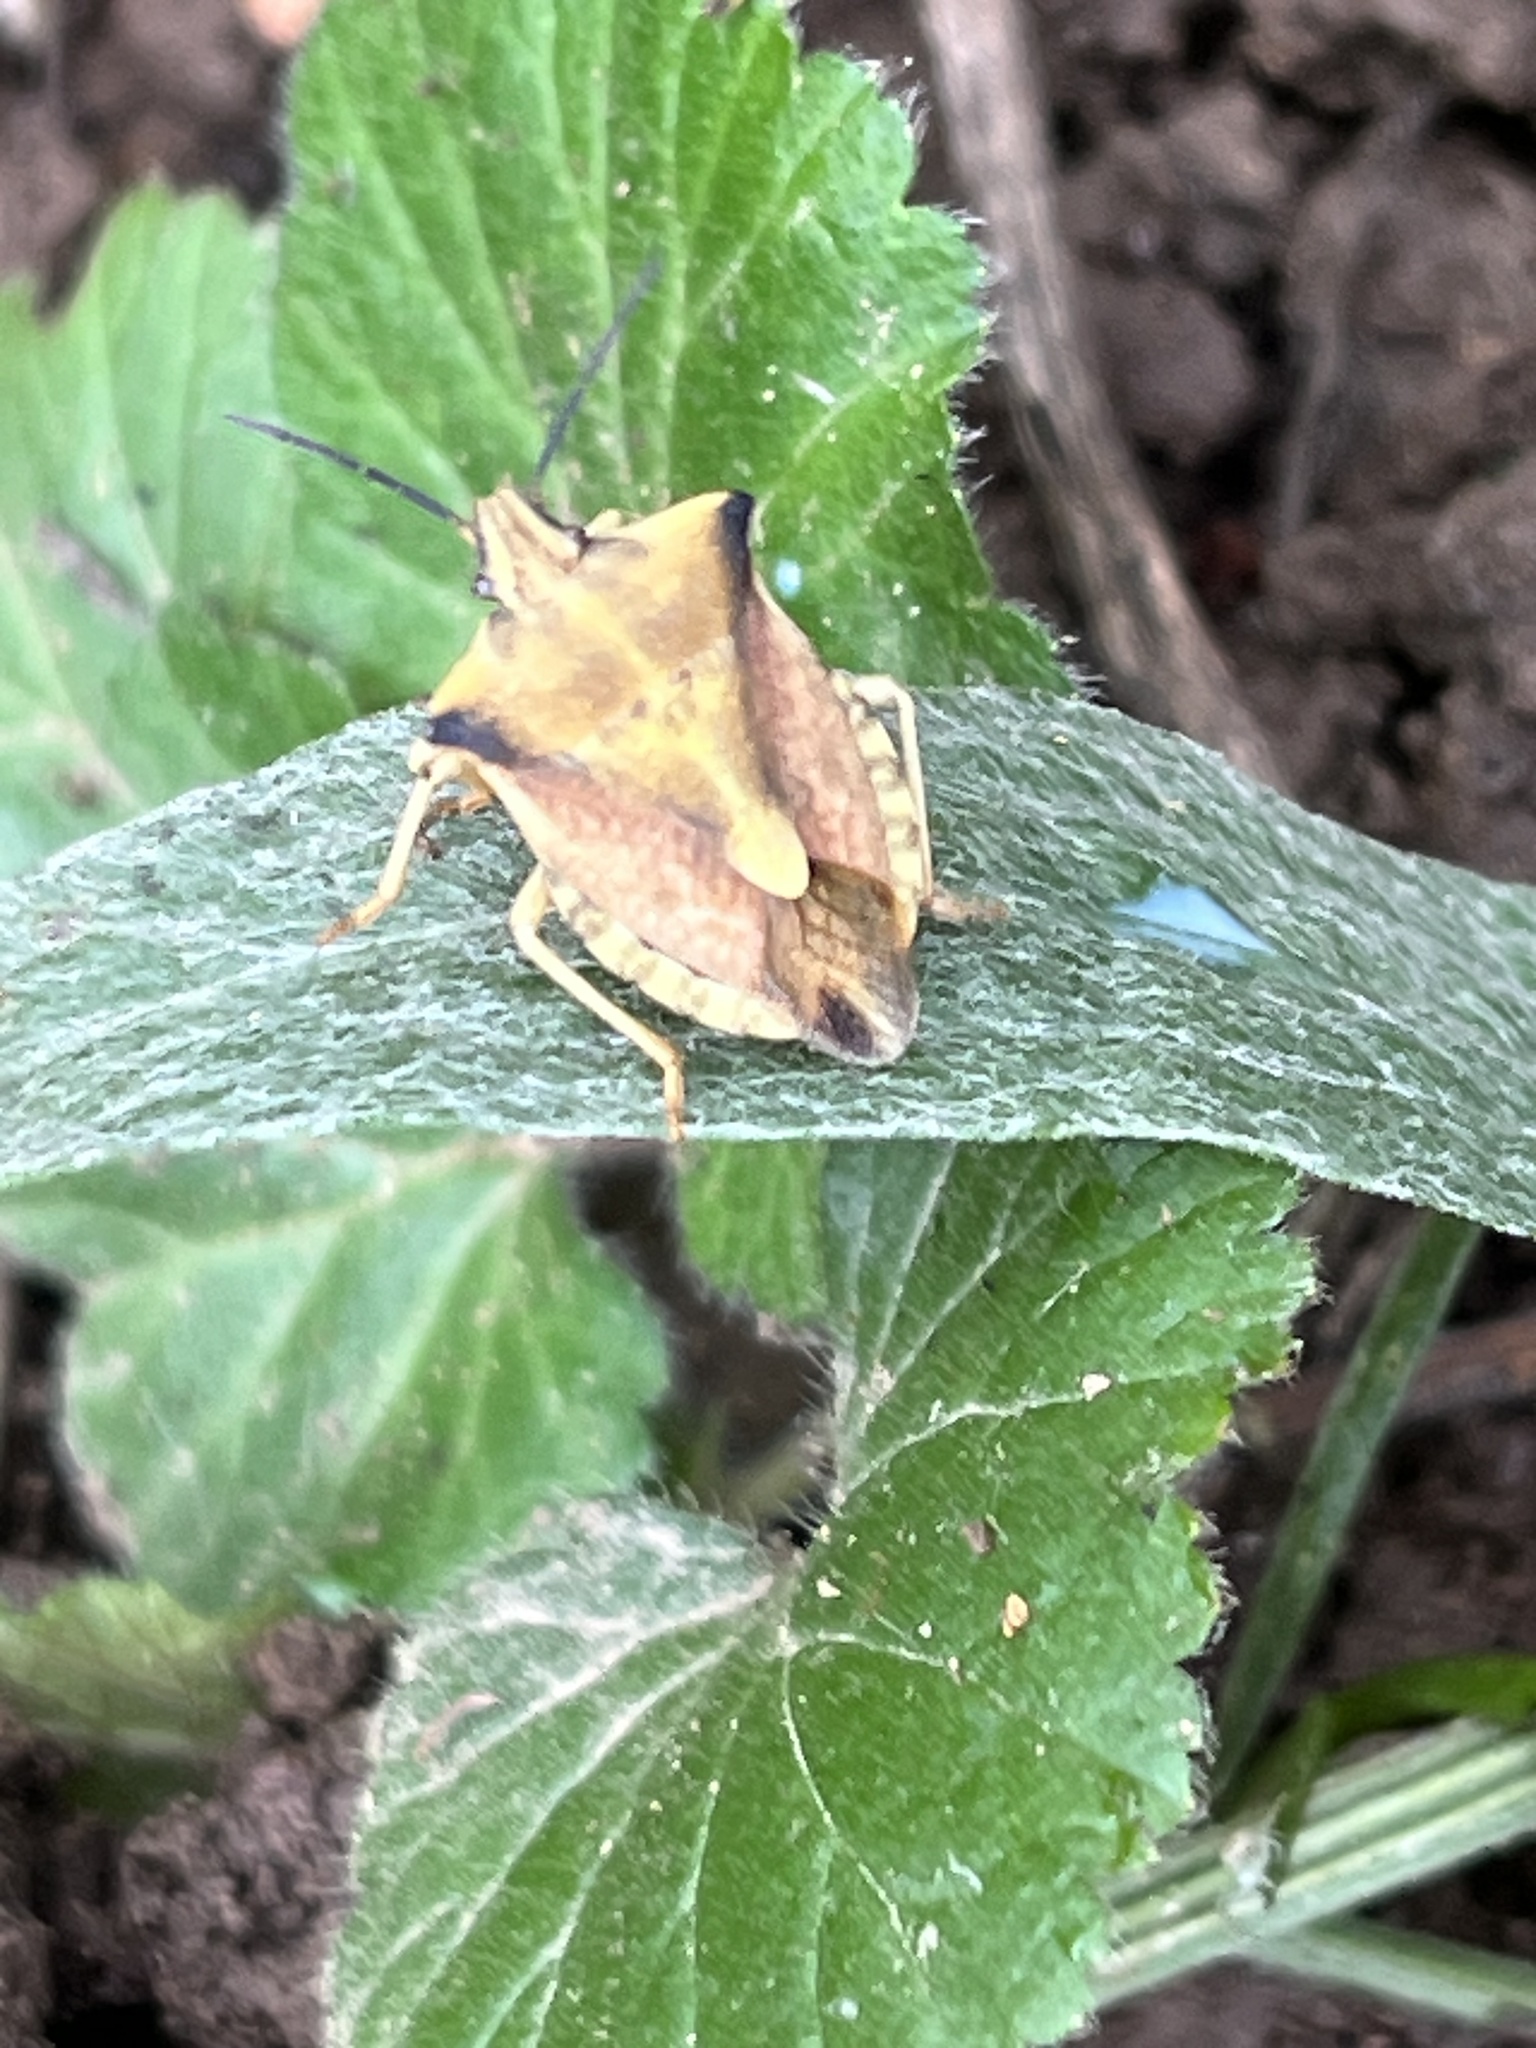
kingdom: Animalia
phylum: Arthropoda
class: Insecta
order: Hemiptera
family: Pentatomidae
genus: Carpocoris
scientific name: Carpocoris fuscispinus
